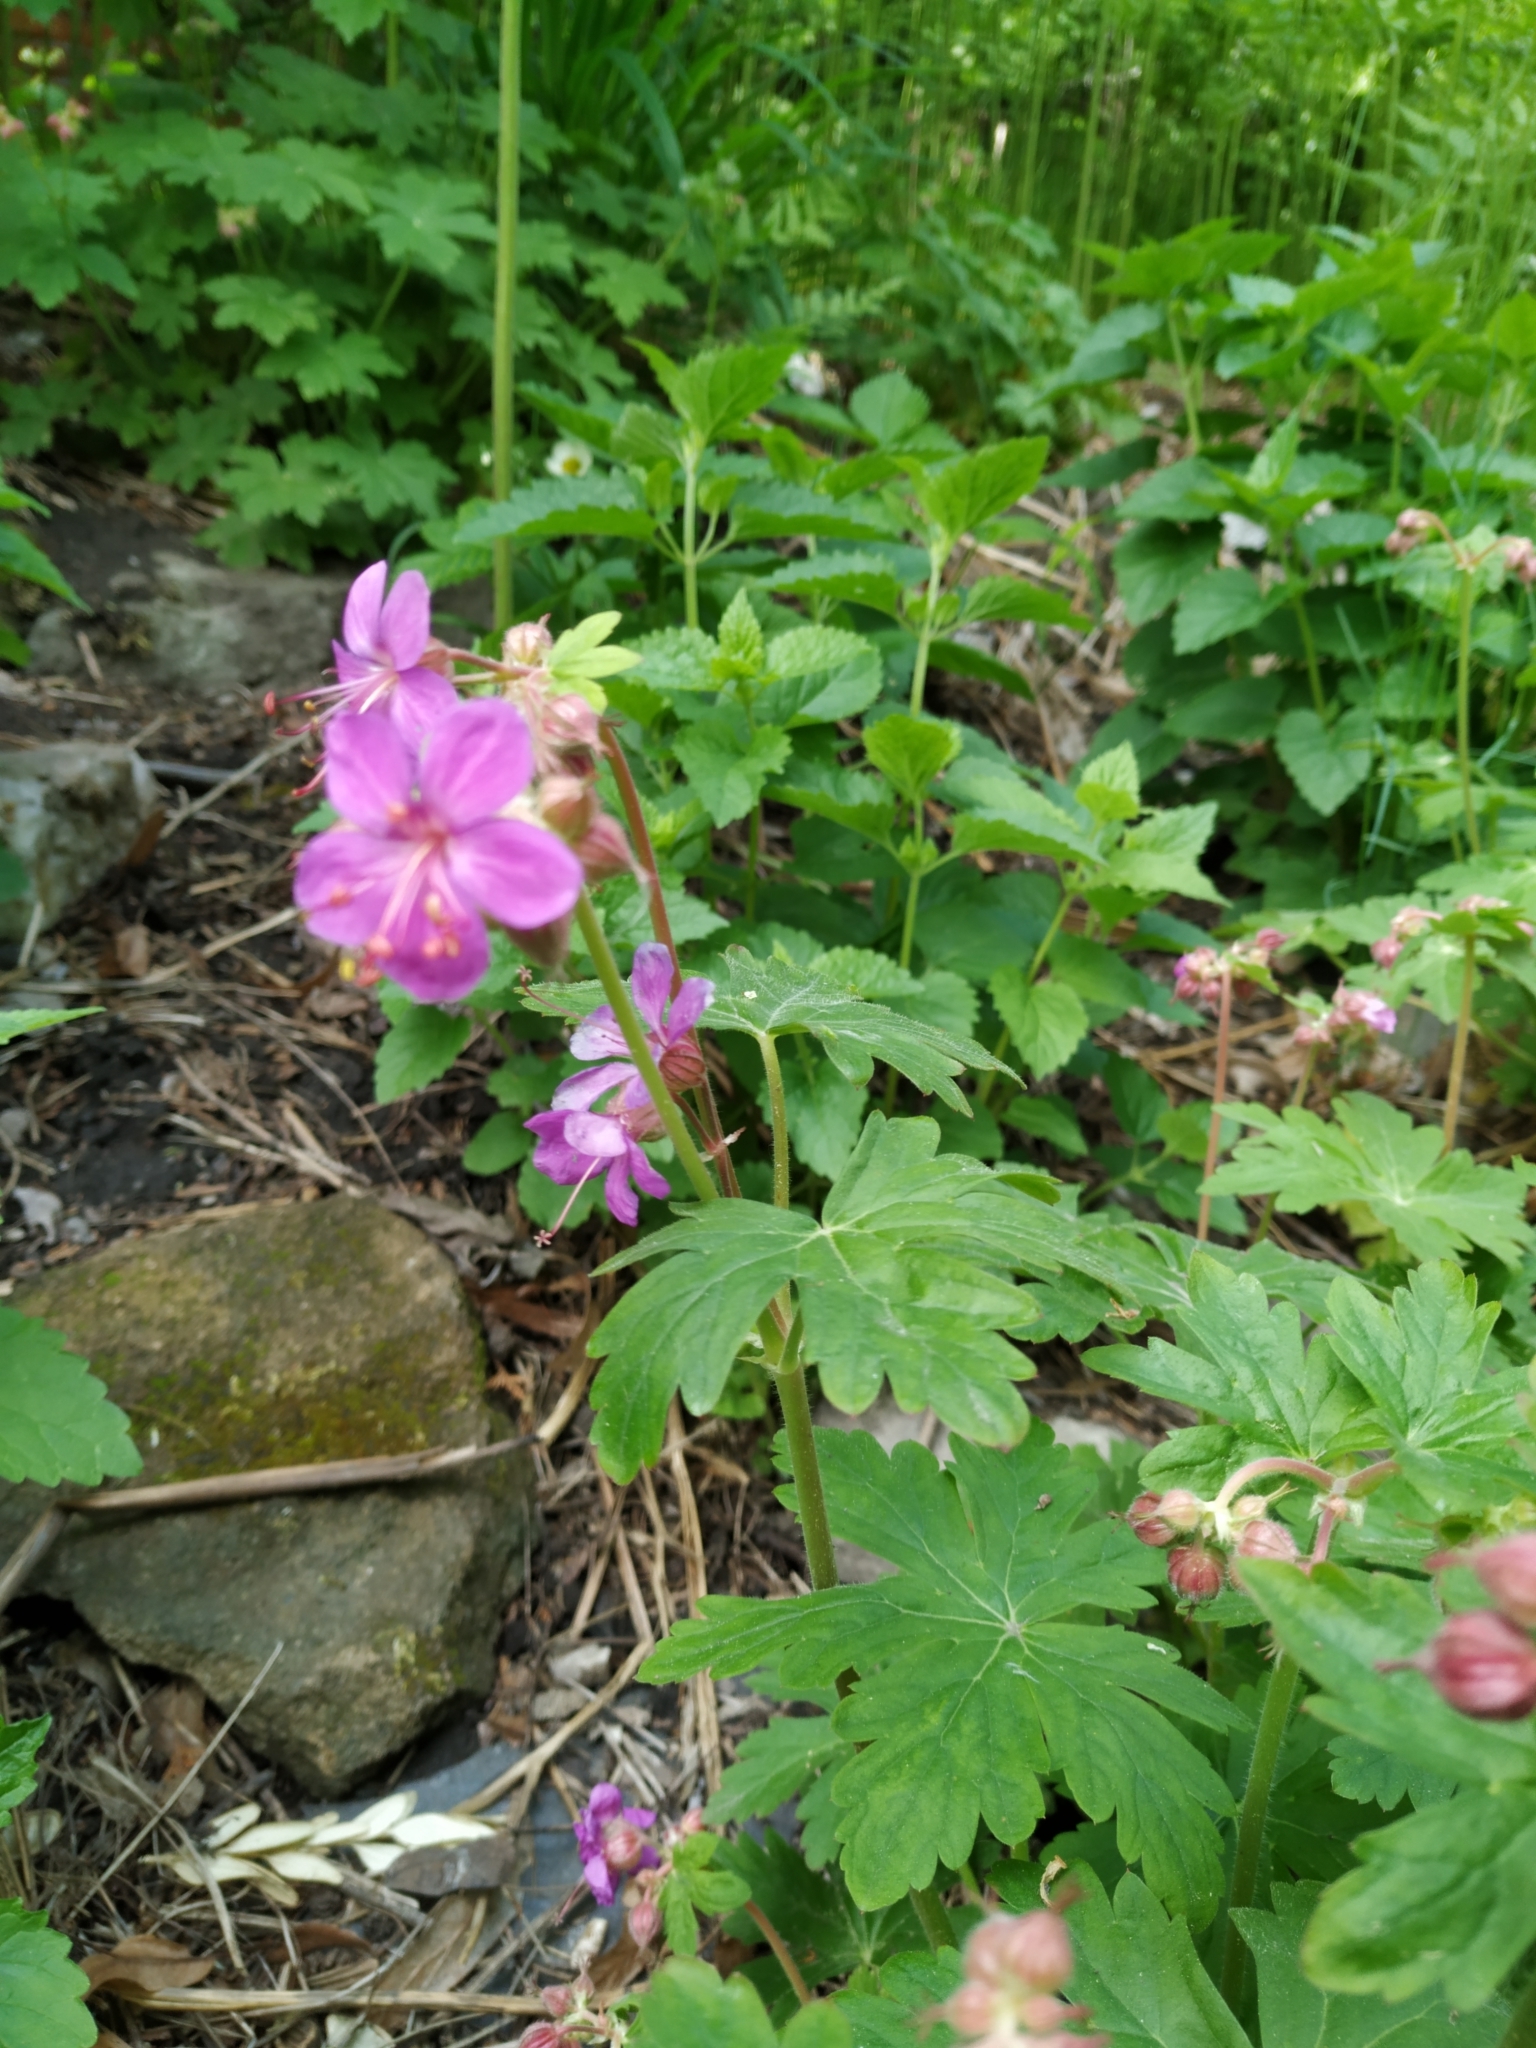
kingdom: Plantae
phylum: Tracheophyta
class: Magnoliopsida
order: Geraniales
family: Geraniaceae
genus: Geranium
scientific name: Geranium macrorrhizum
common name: Rock crane's-bill
